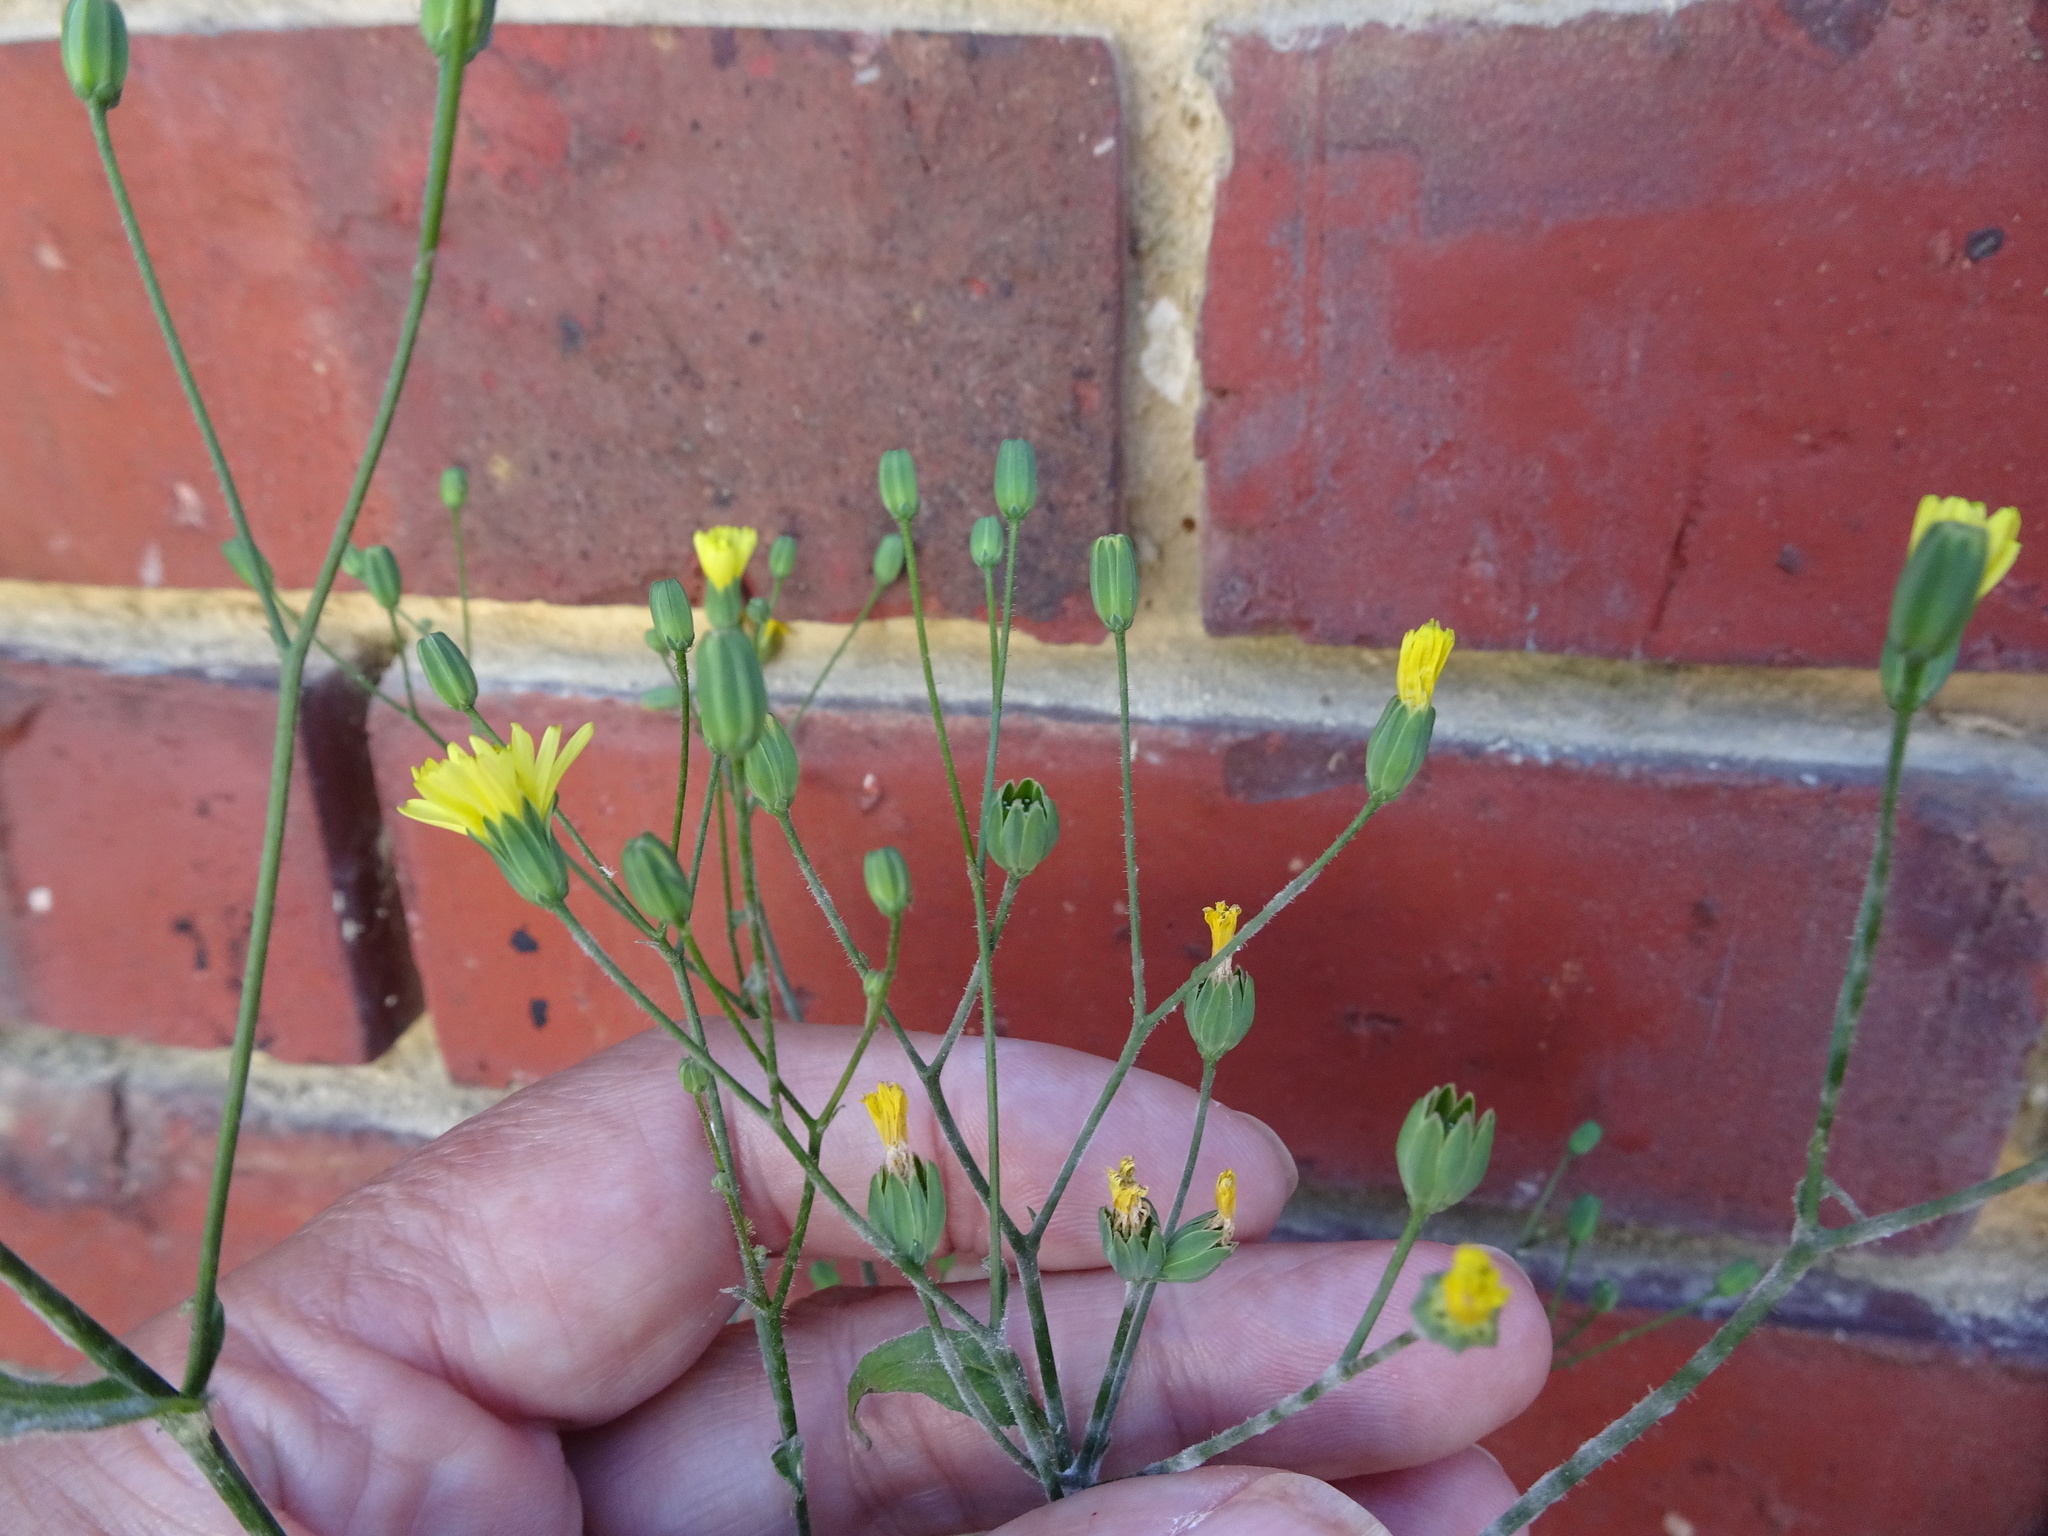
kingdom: Plantae
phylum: Tracheophyta
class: Magnoliopsida
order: Asterales
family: Asteraceae
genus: Lapsana
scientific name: Lapsana communis
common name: Nipplewort
